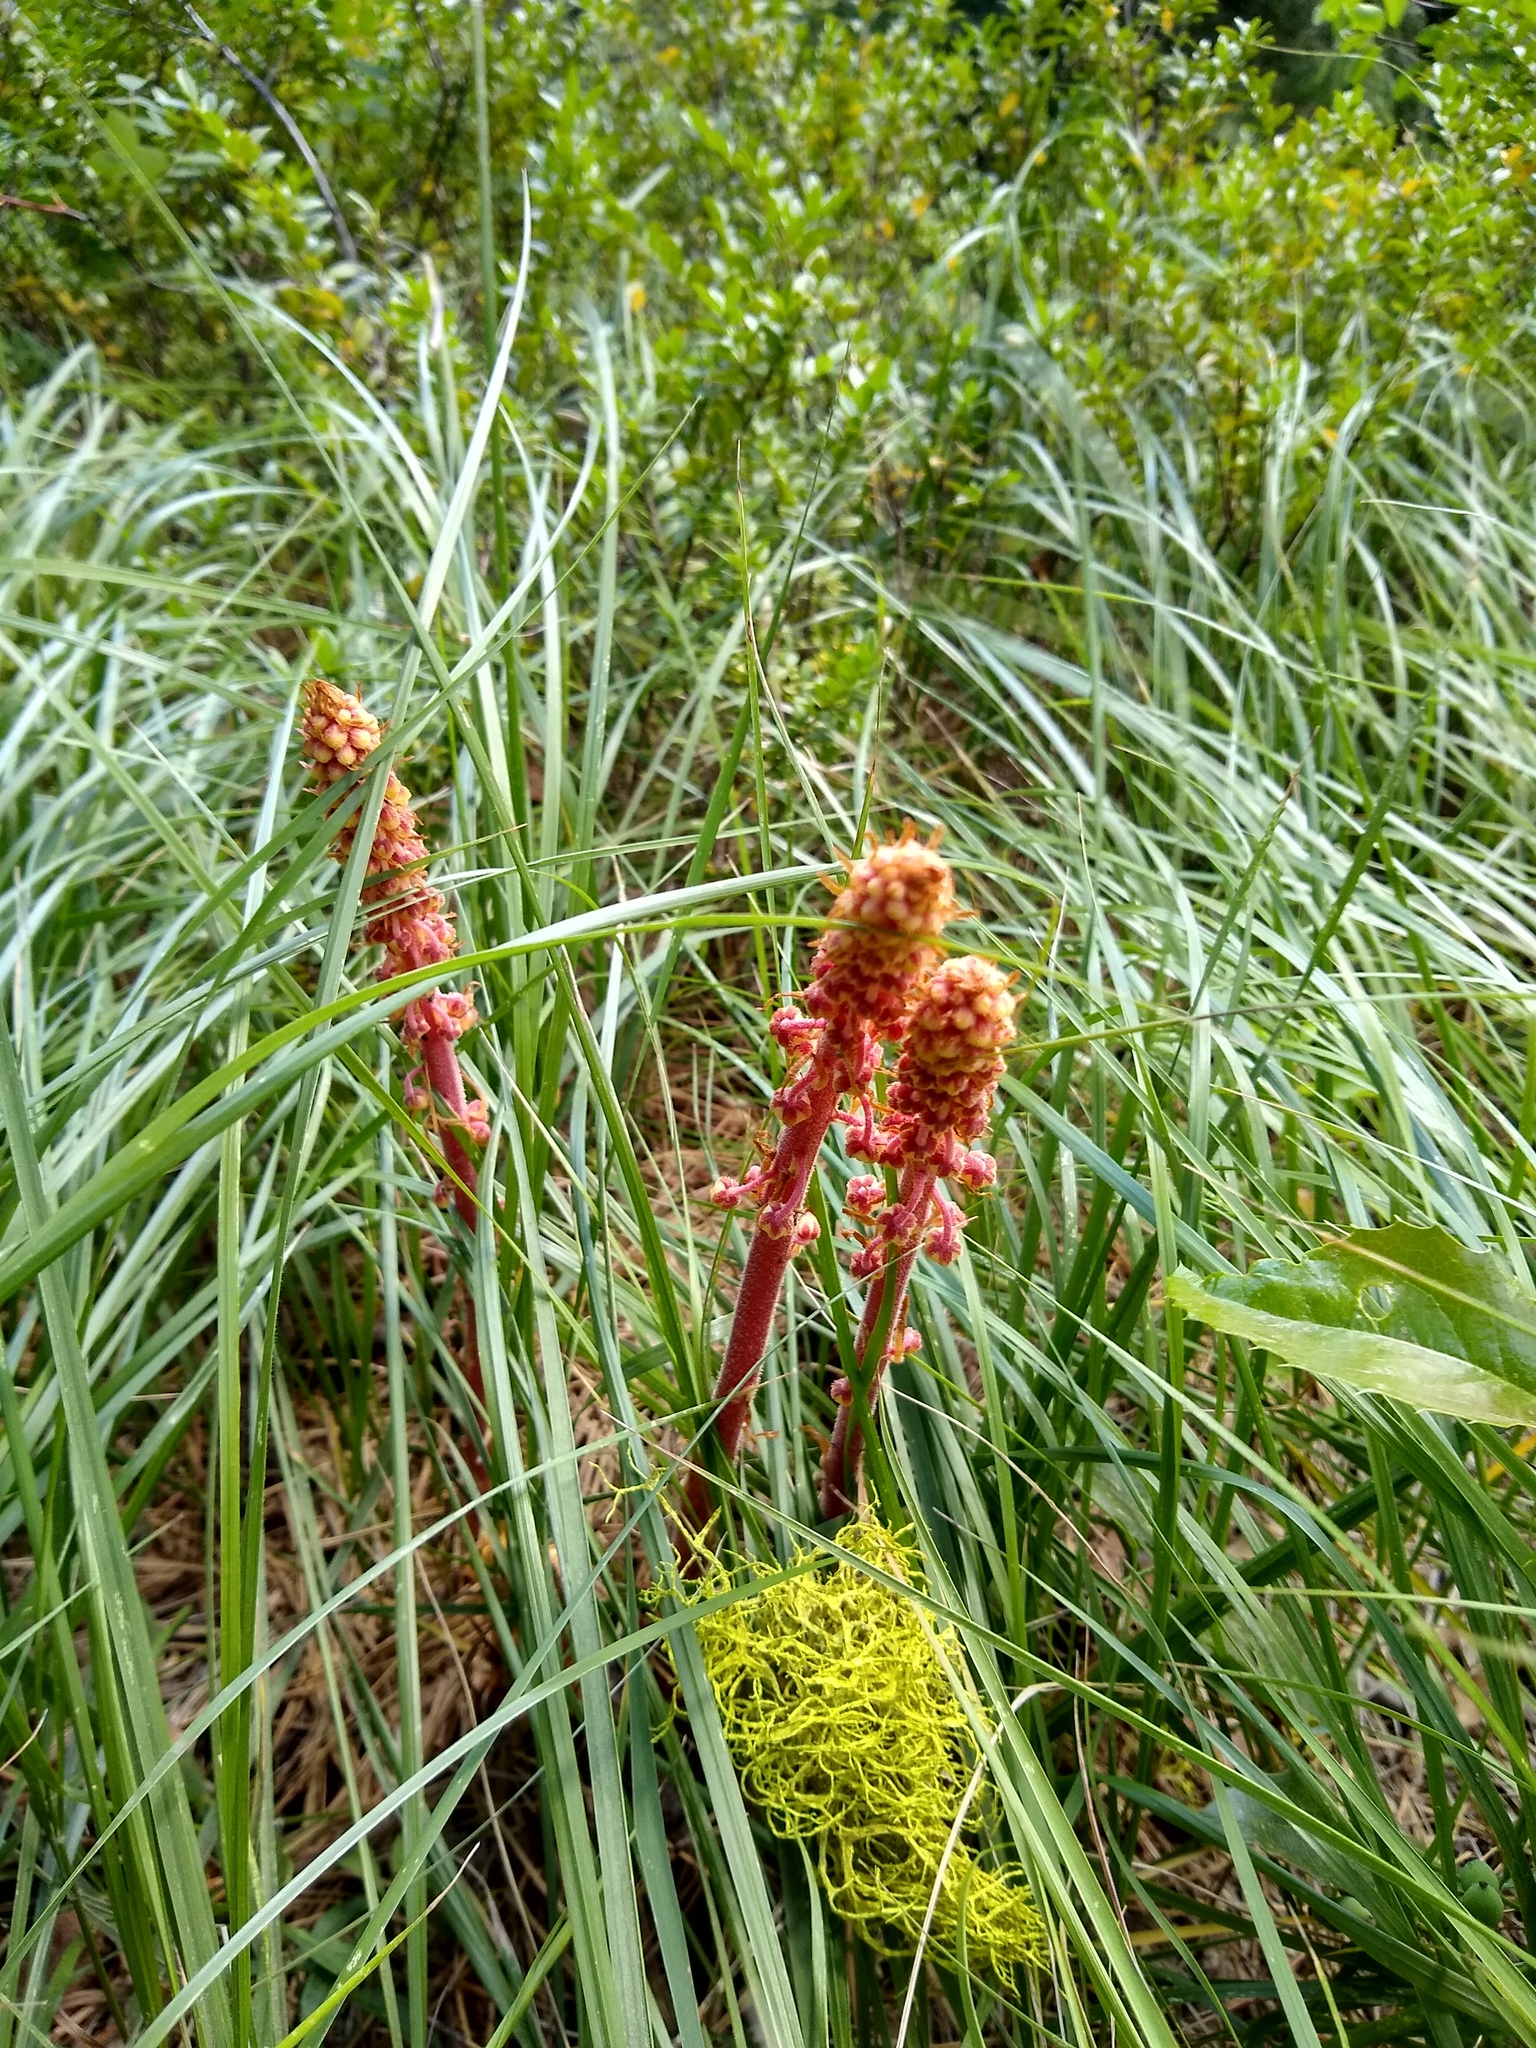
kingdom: Plantae
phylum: Tracheophyta
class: Magnoliopsida
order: Ericales
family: Ericaceae
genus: Pterospora
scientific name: Pterospora andromedea
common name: Giant bird's-nest
